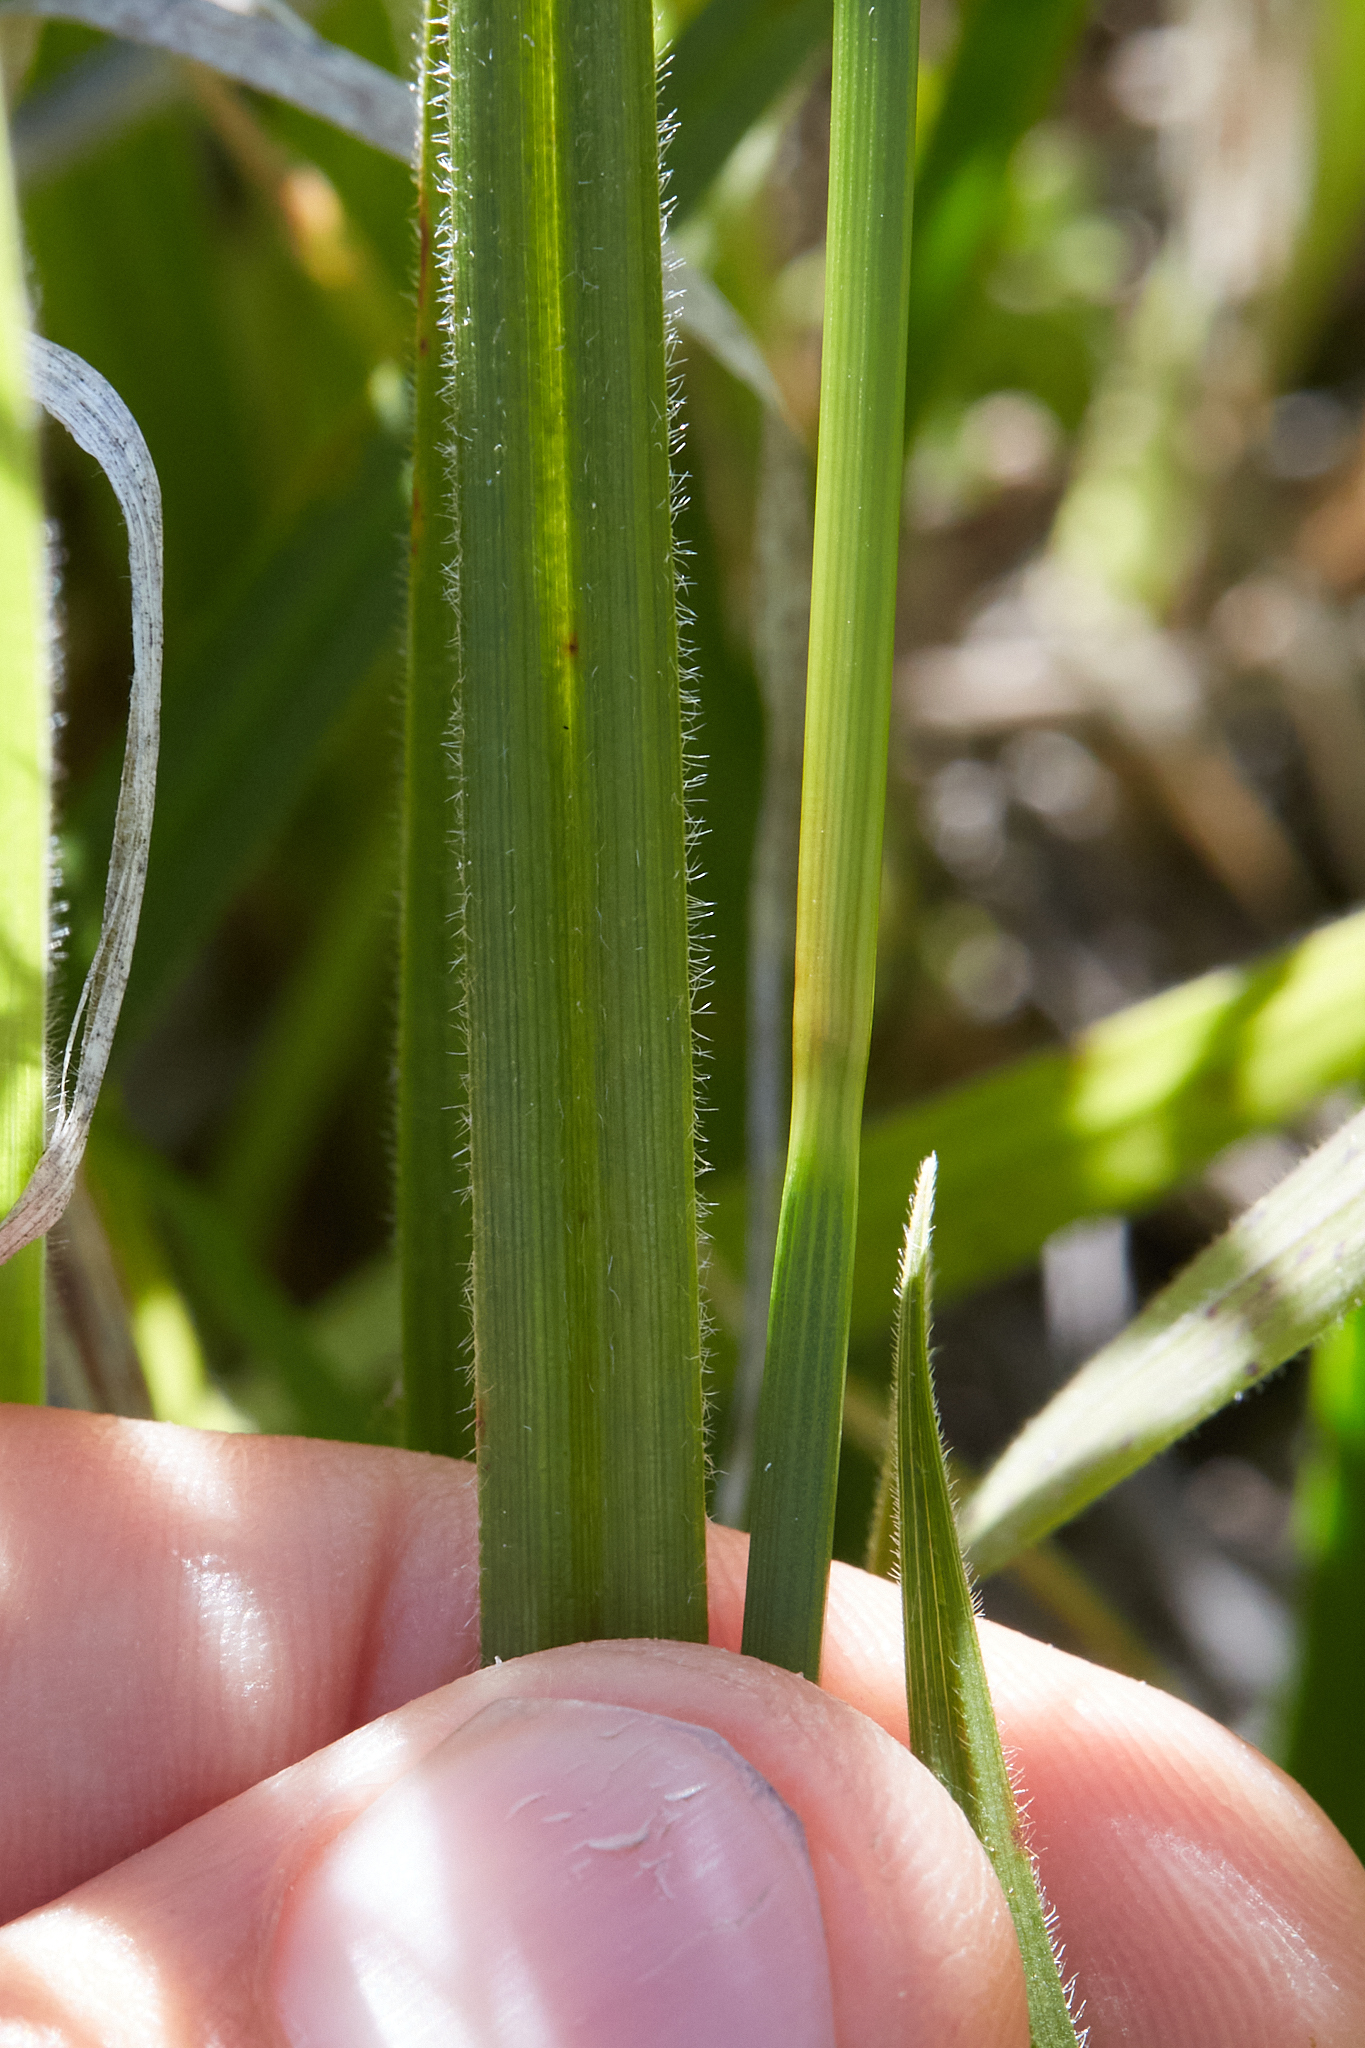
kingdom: Plantae
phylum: Tracheophyta
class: Liliopsida
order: Poales
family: Cyperaceae
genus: Carex
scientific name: Carex gynodynama
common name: Olney's hairy sedge
